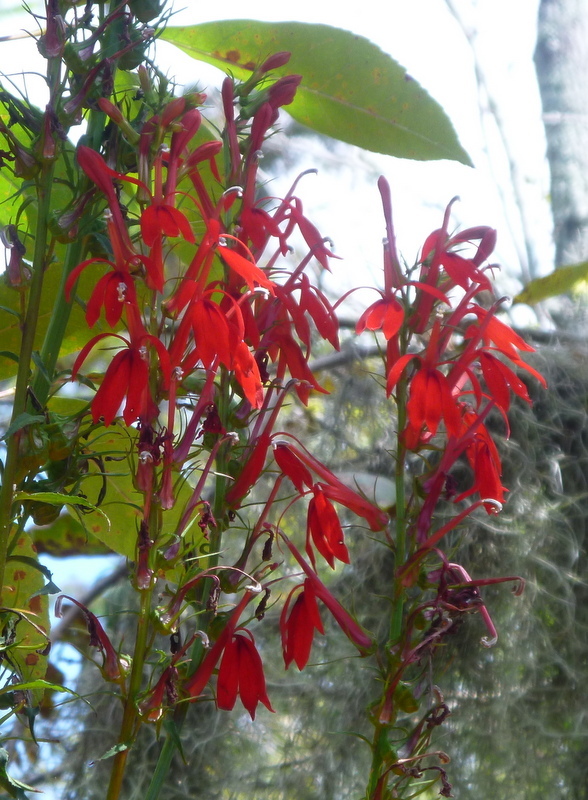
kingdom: Plantae
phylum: Tracheophyta
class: Magnoliopsida
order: Asterales
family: Campanulaceae
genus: Lobelia
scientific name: Lobelia cardinalis
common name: Cardinal flower
